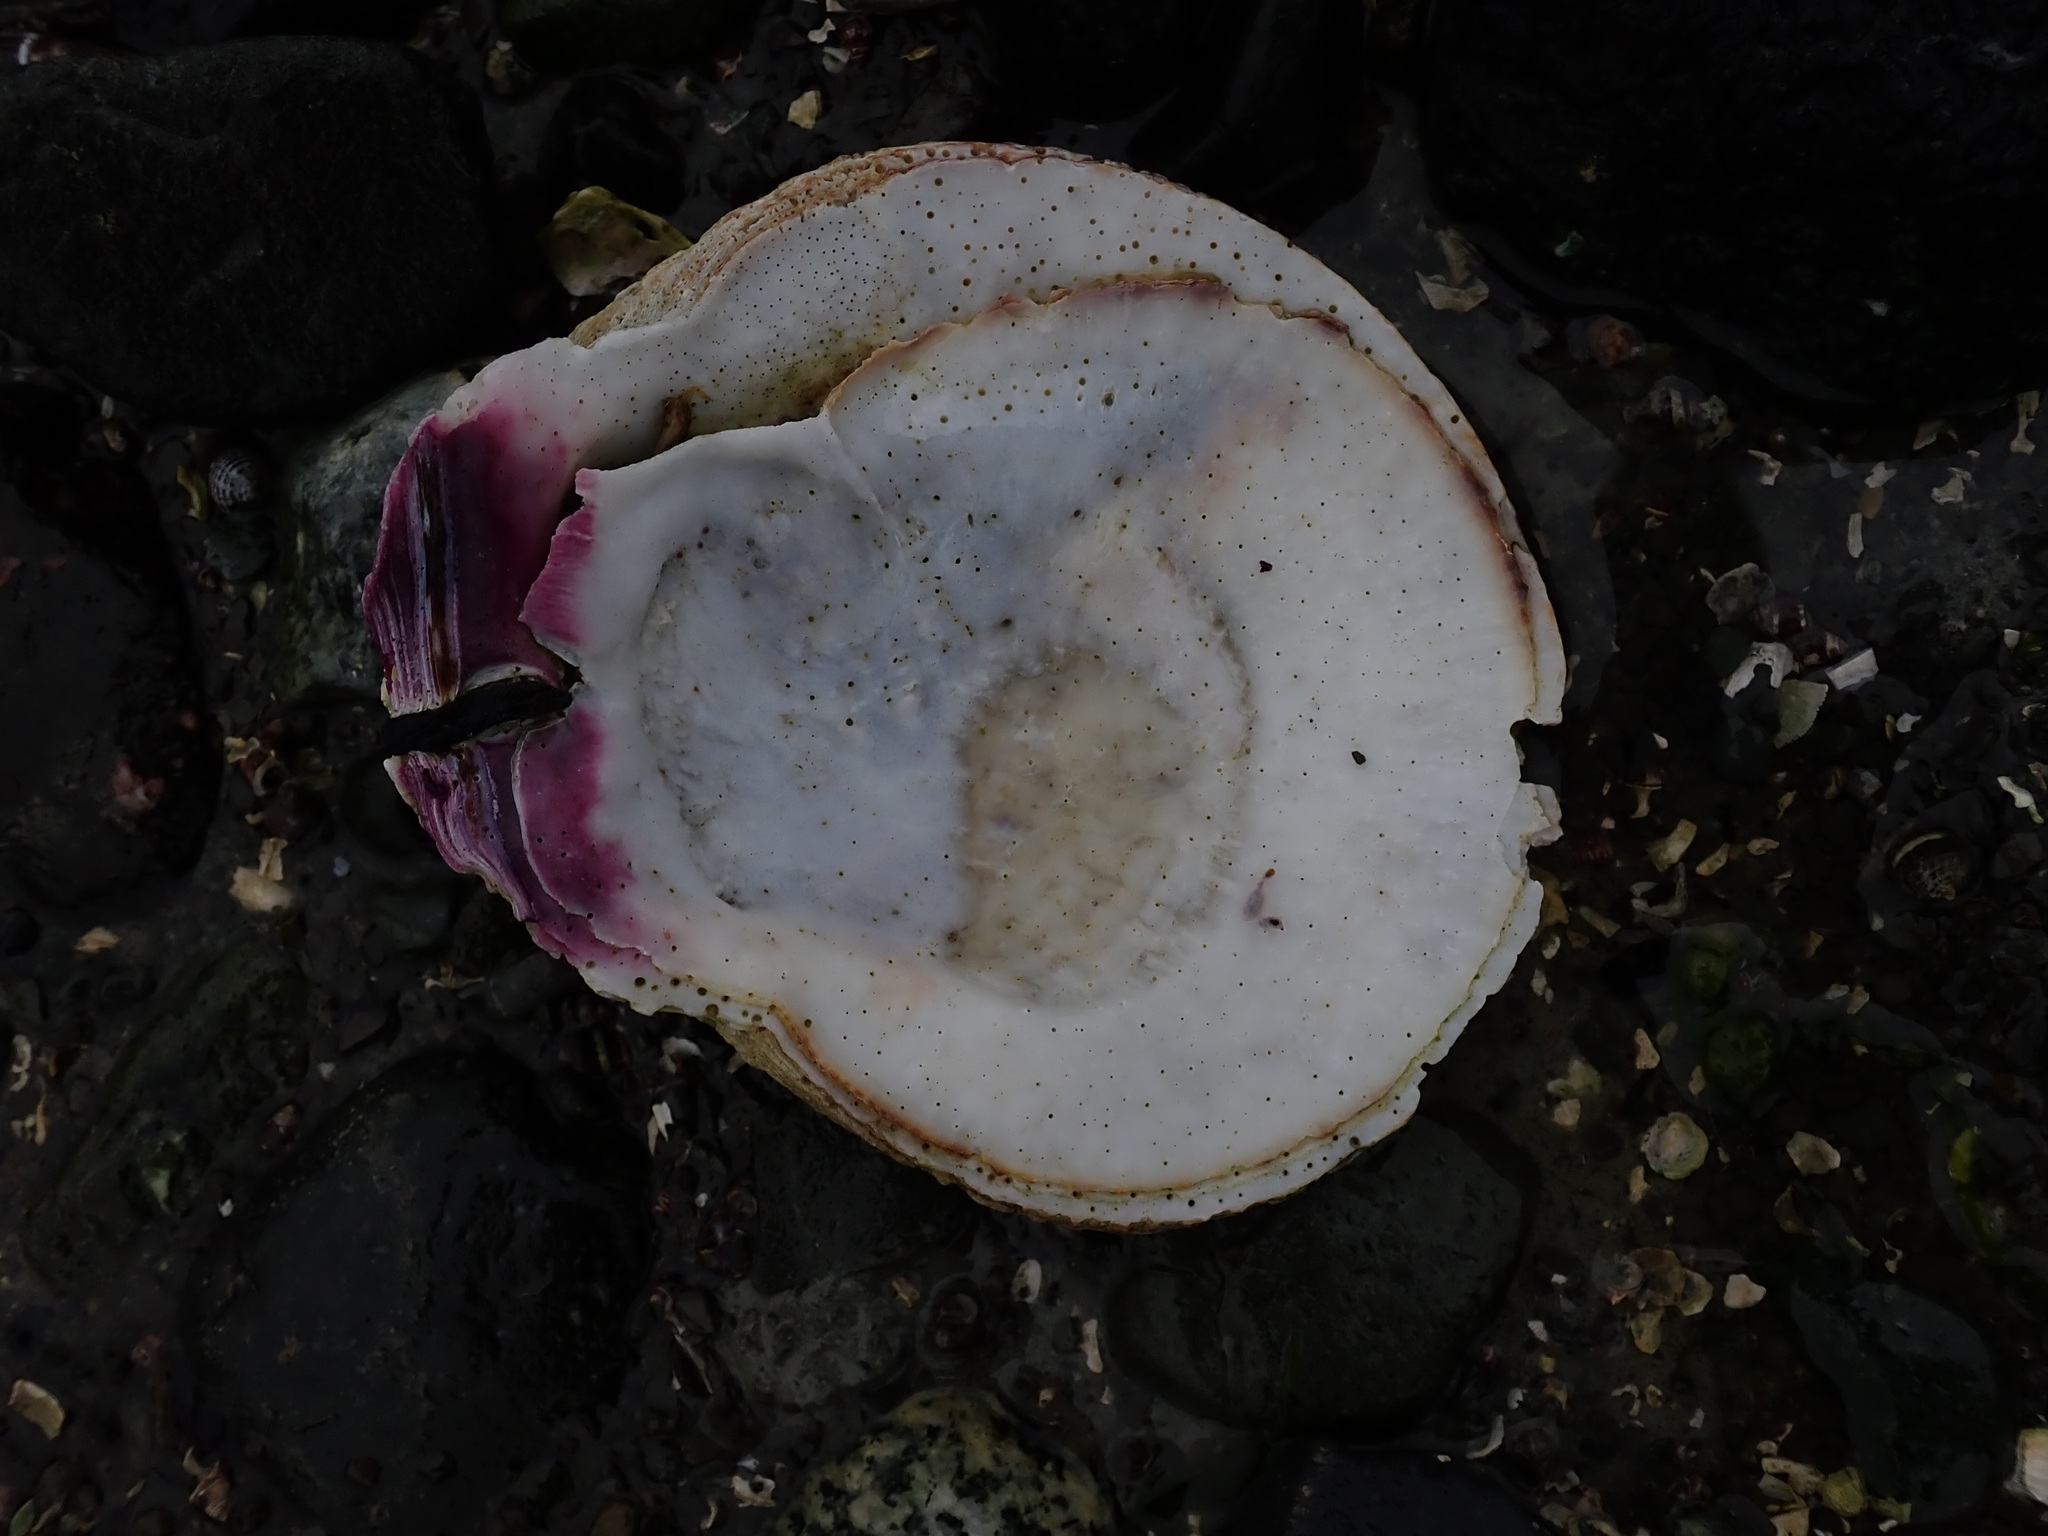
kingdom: Animalia
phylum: Mollusca
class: Bivalvia
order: Pectinida
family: Pectinidae
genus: Crassadoma
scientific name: Crassadoma gigantea
